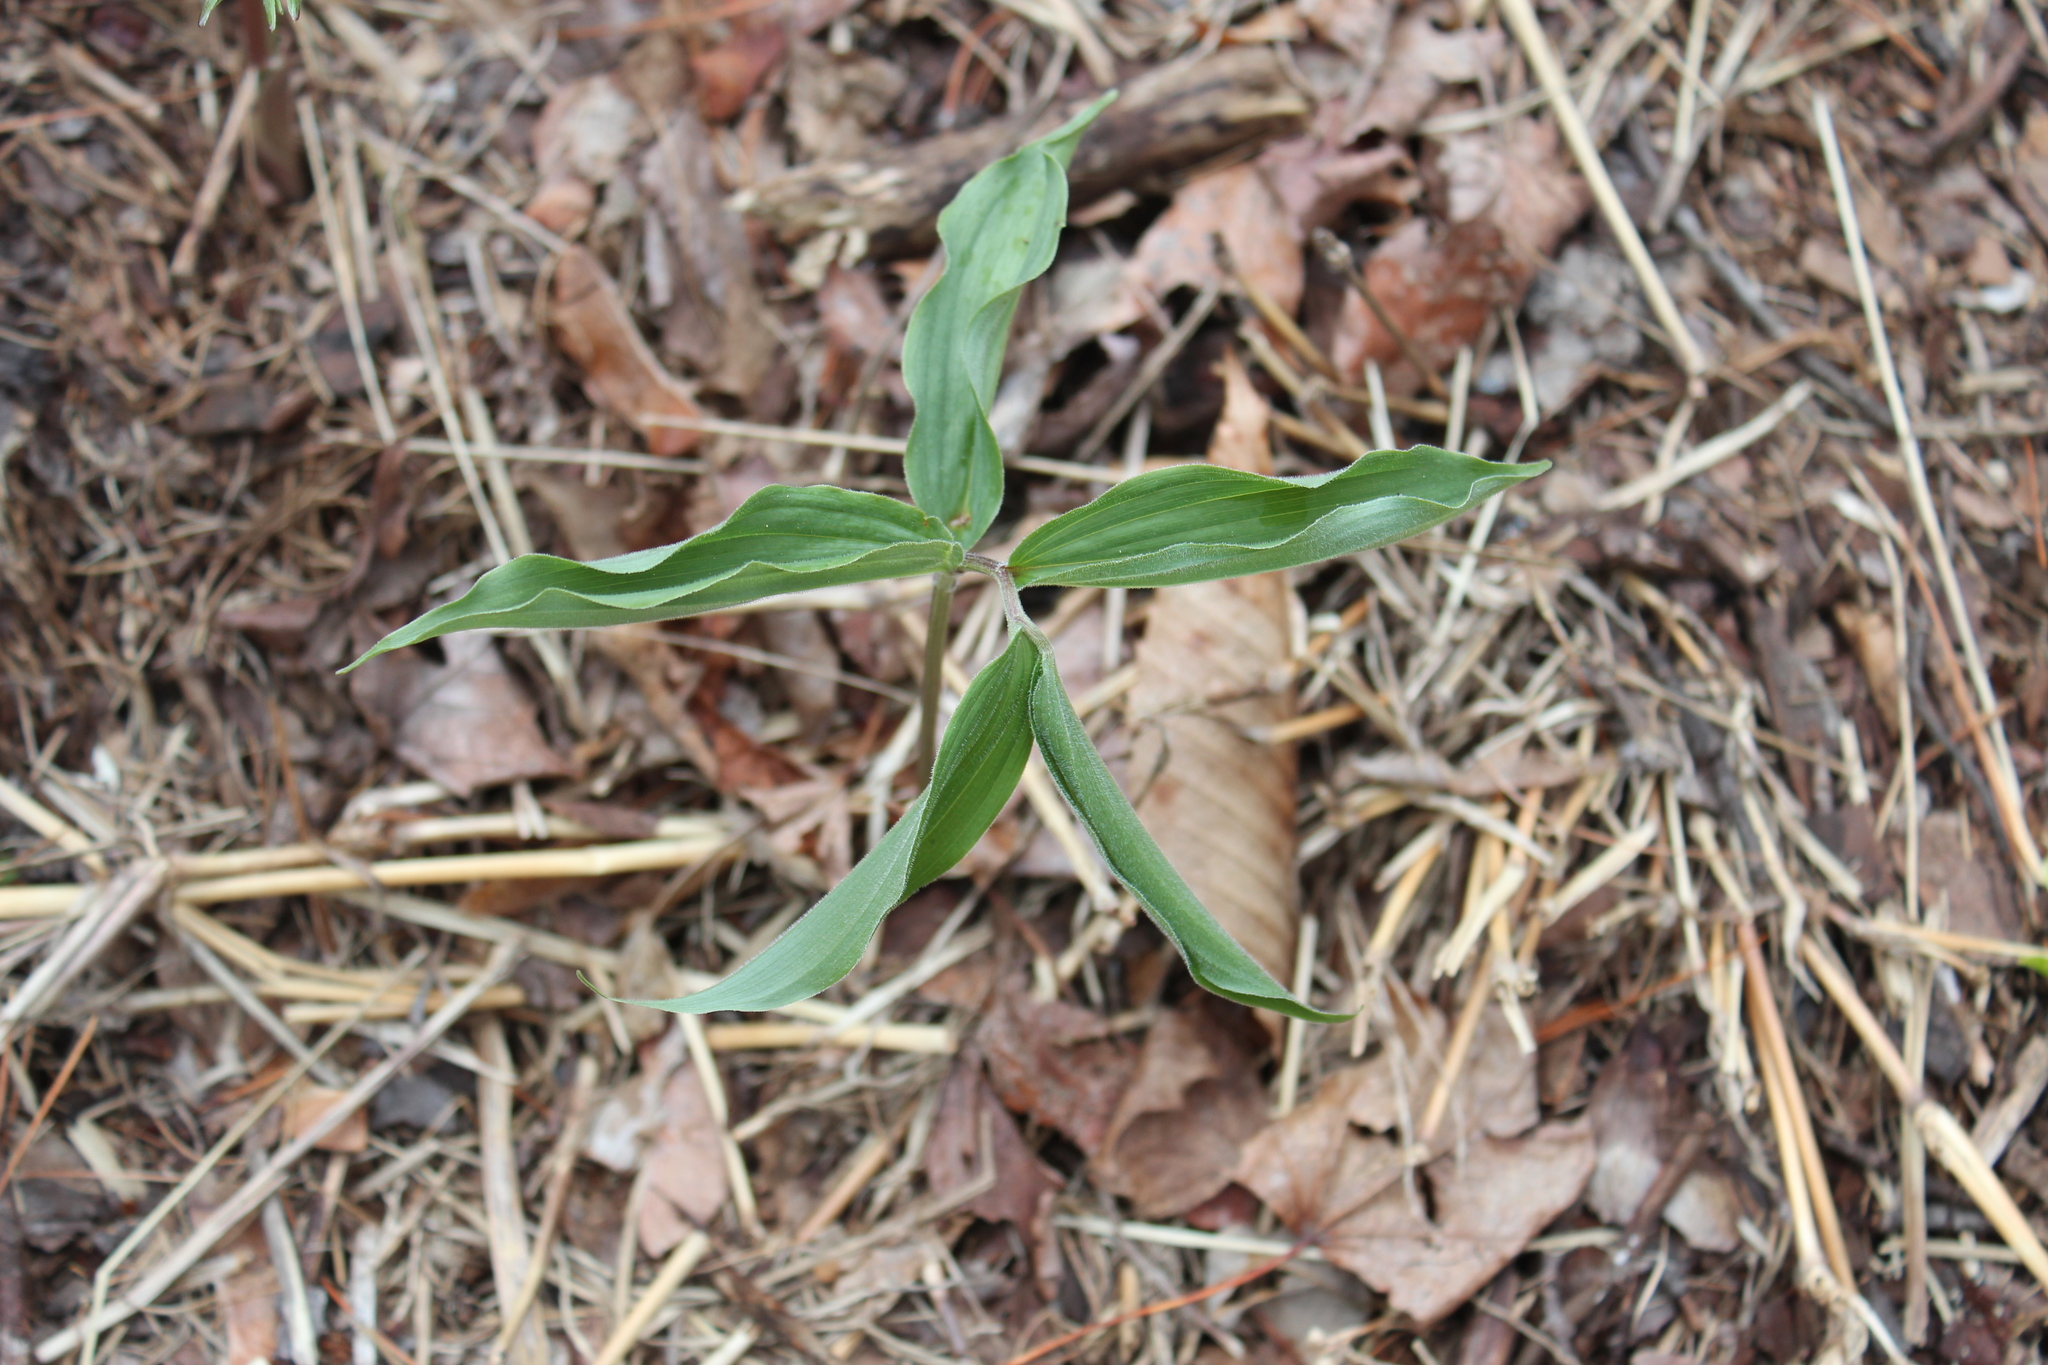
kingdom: Plantae
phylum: Tracheophyta
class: Liliopsida
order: Asparagales
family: Asparagaceae
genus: Maianthemum
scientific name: Maianthemum racemosum
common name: False spikenard
